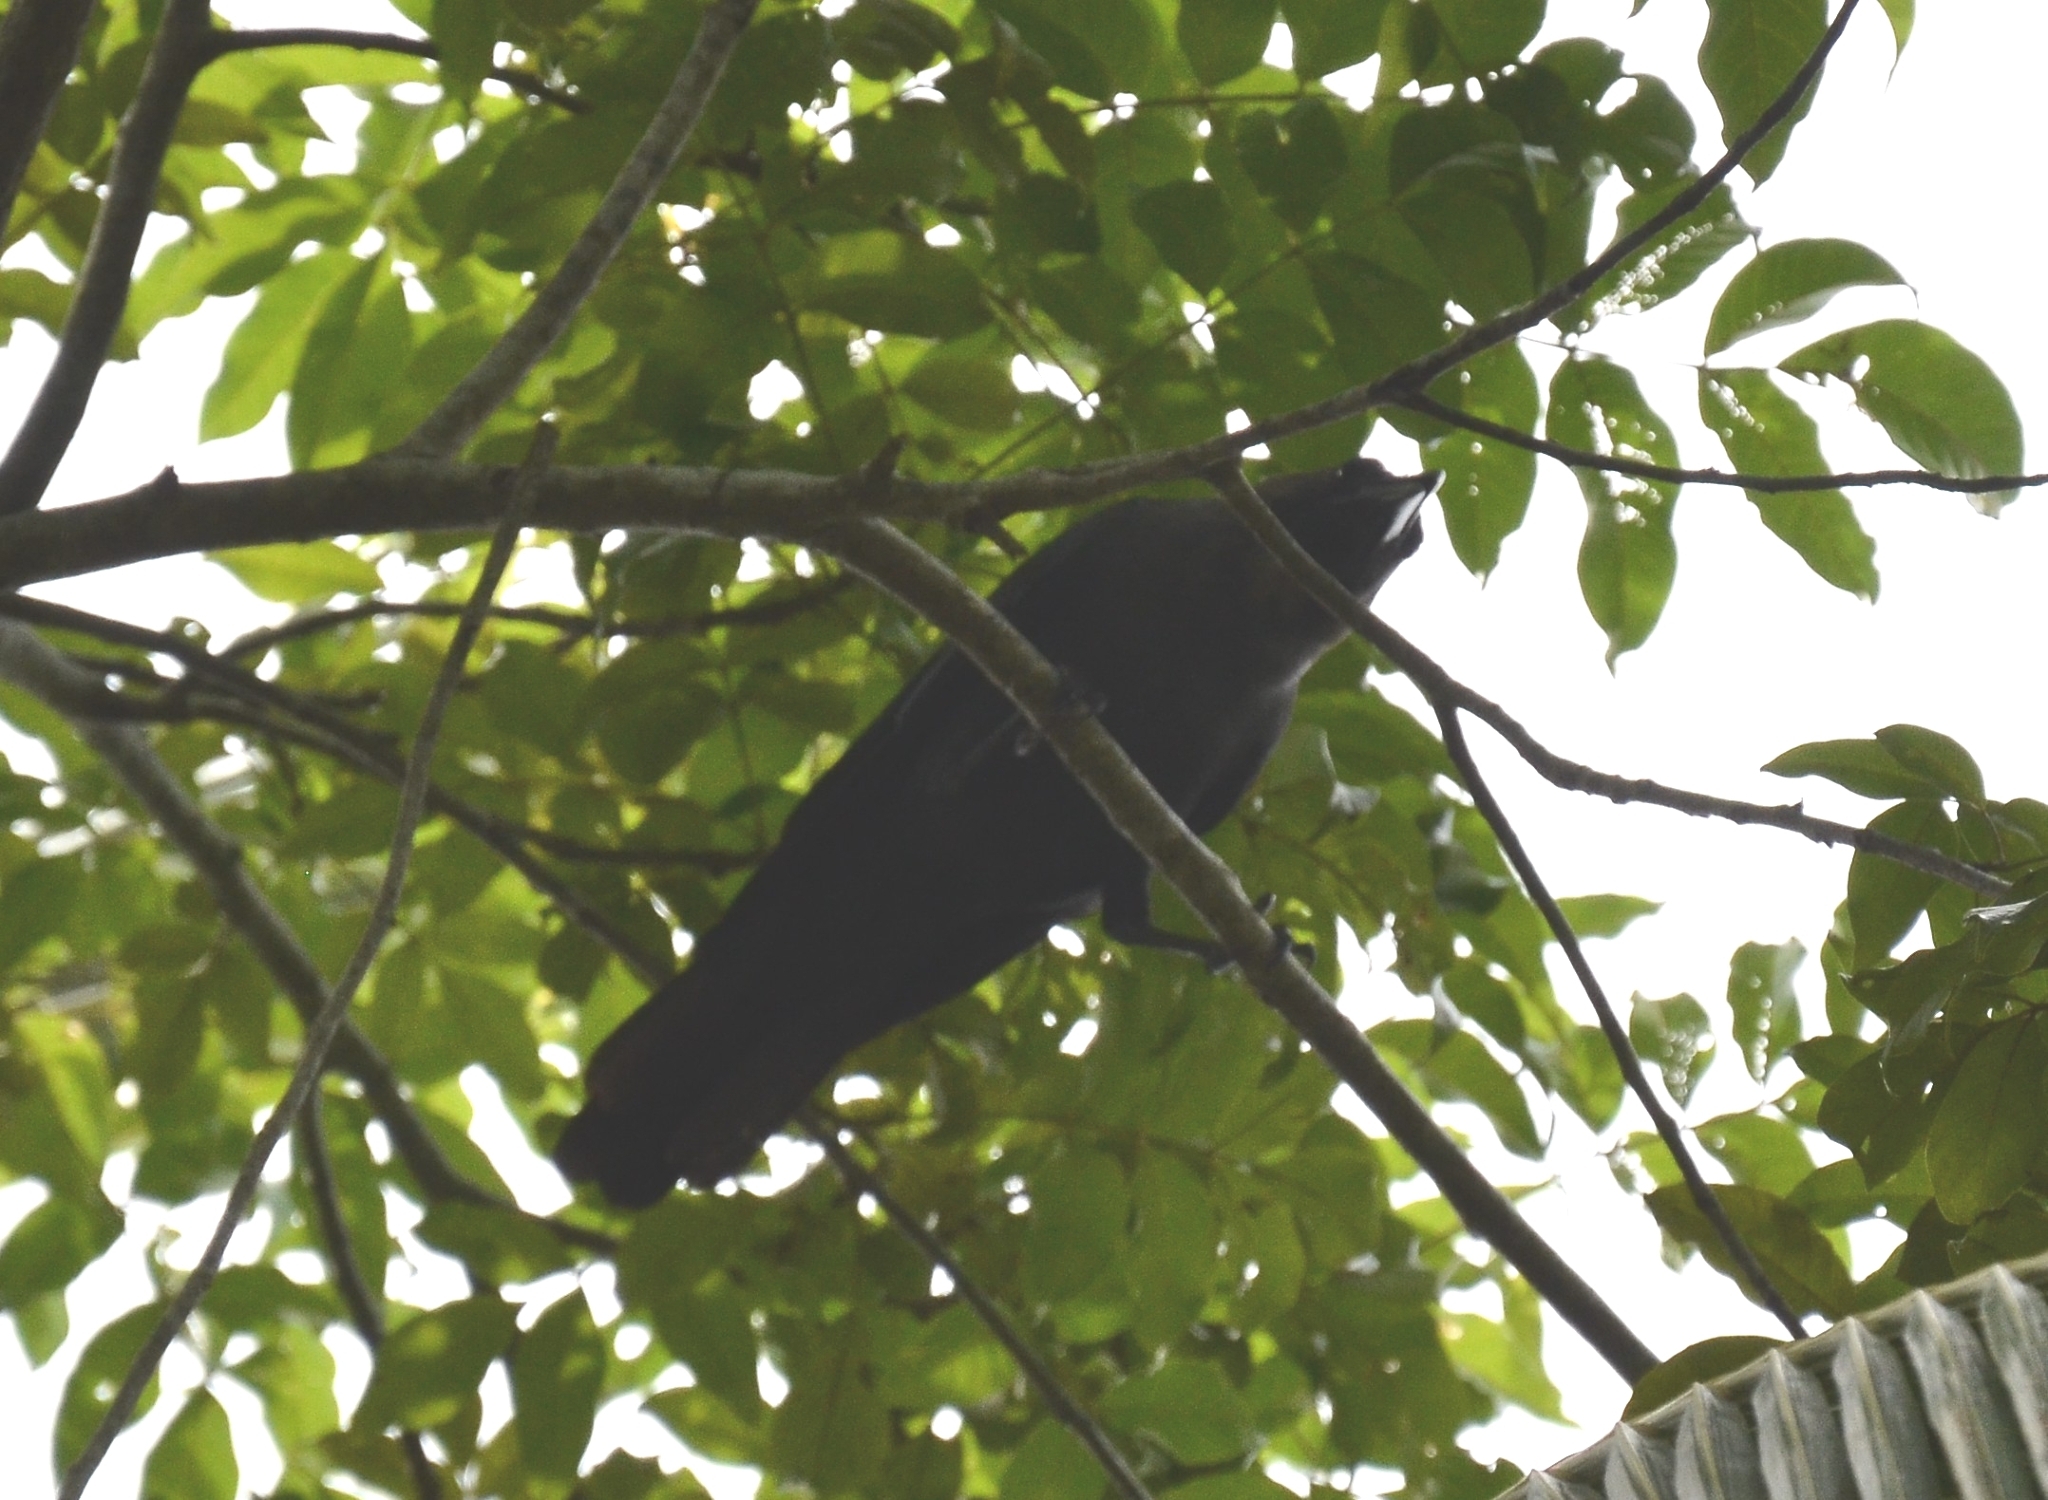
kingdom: Animalia
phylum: Chordata
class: Aves
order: Passeriformes
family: Corvidae
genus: Corvus
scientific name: Corvus splendens
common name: House crow
